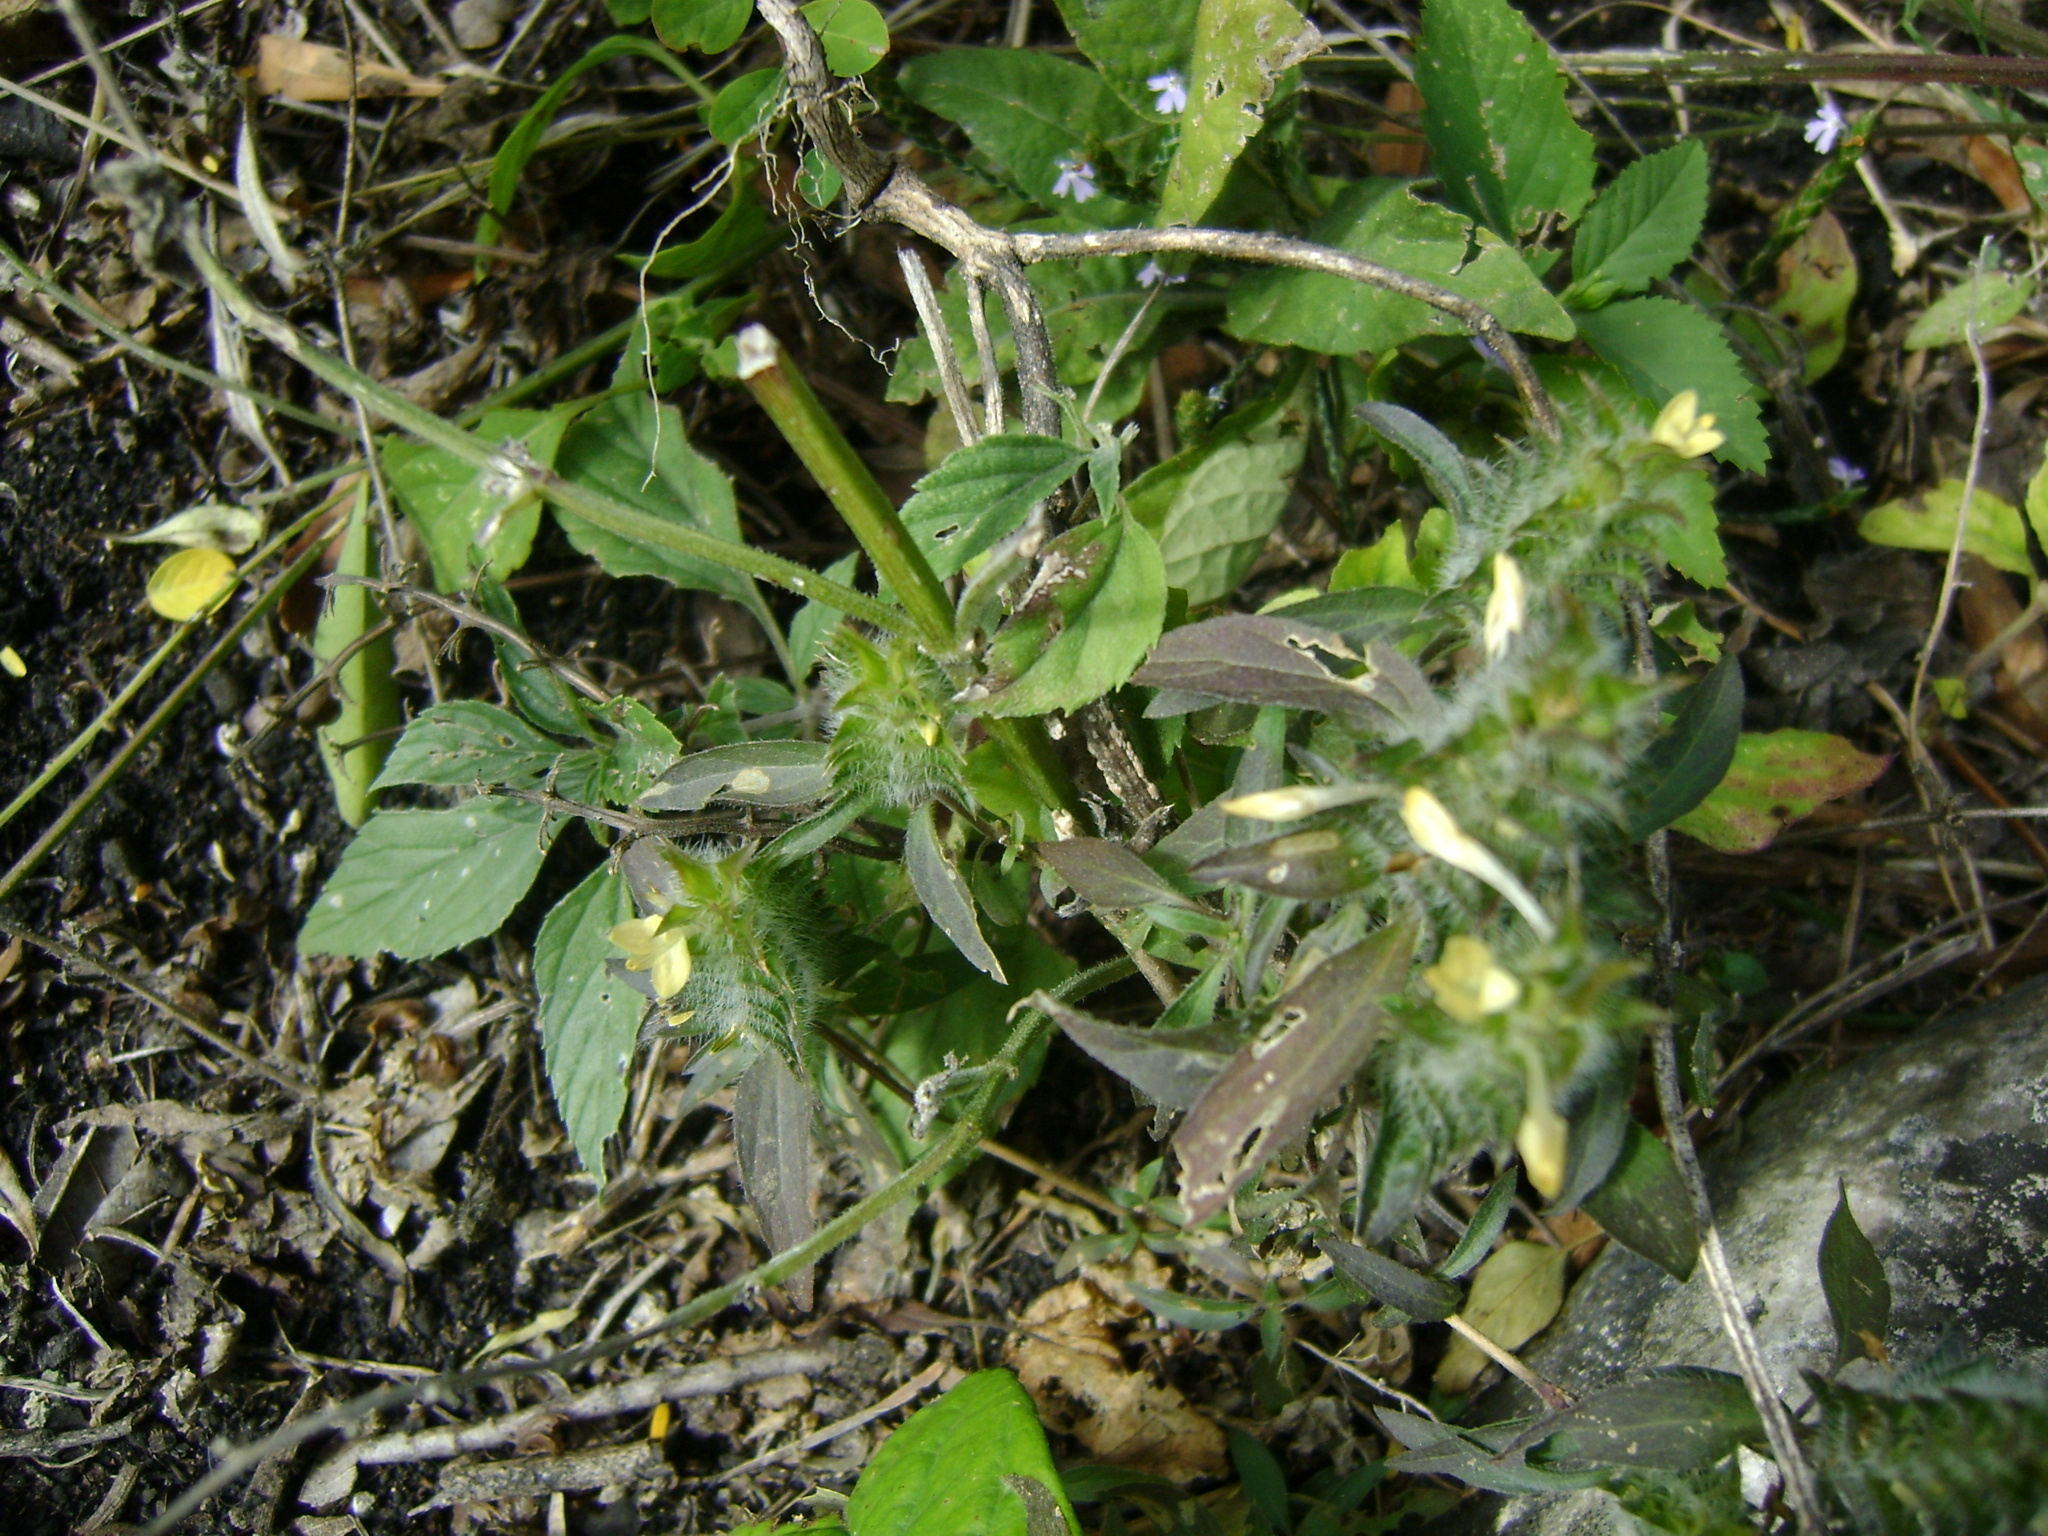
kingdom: Plantae
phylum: Tracheophyta
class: Magnoliopsida
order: Lamiales
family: Acanthaceae
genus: Tetramerium
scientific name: Tetramerium nervosum
